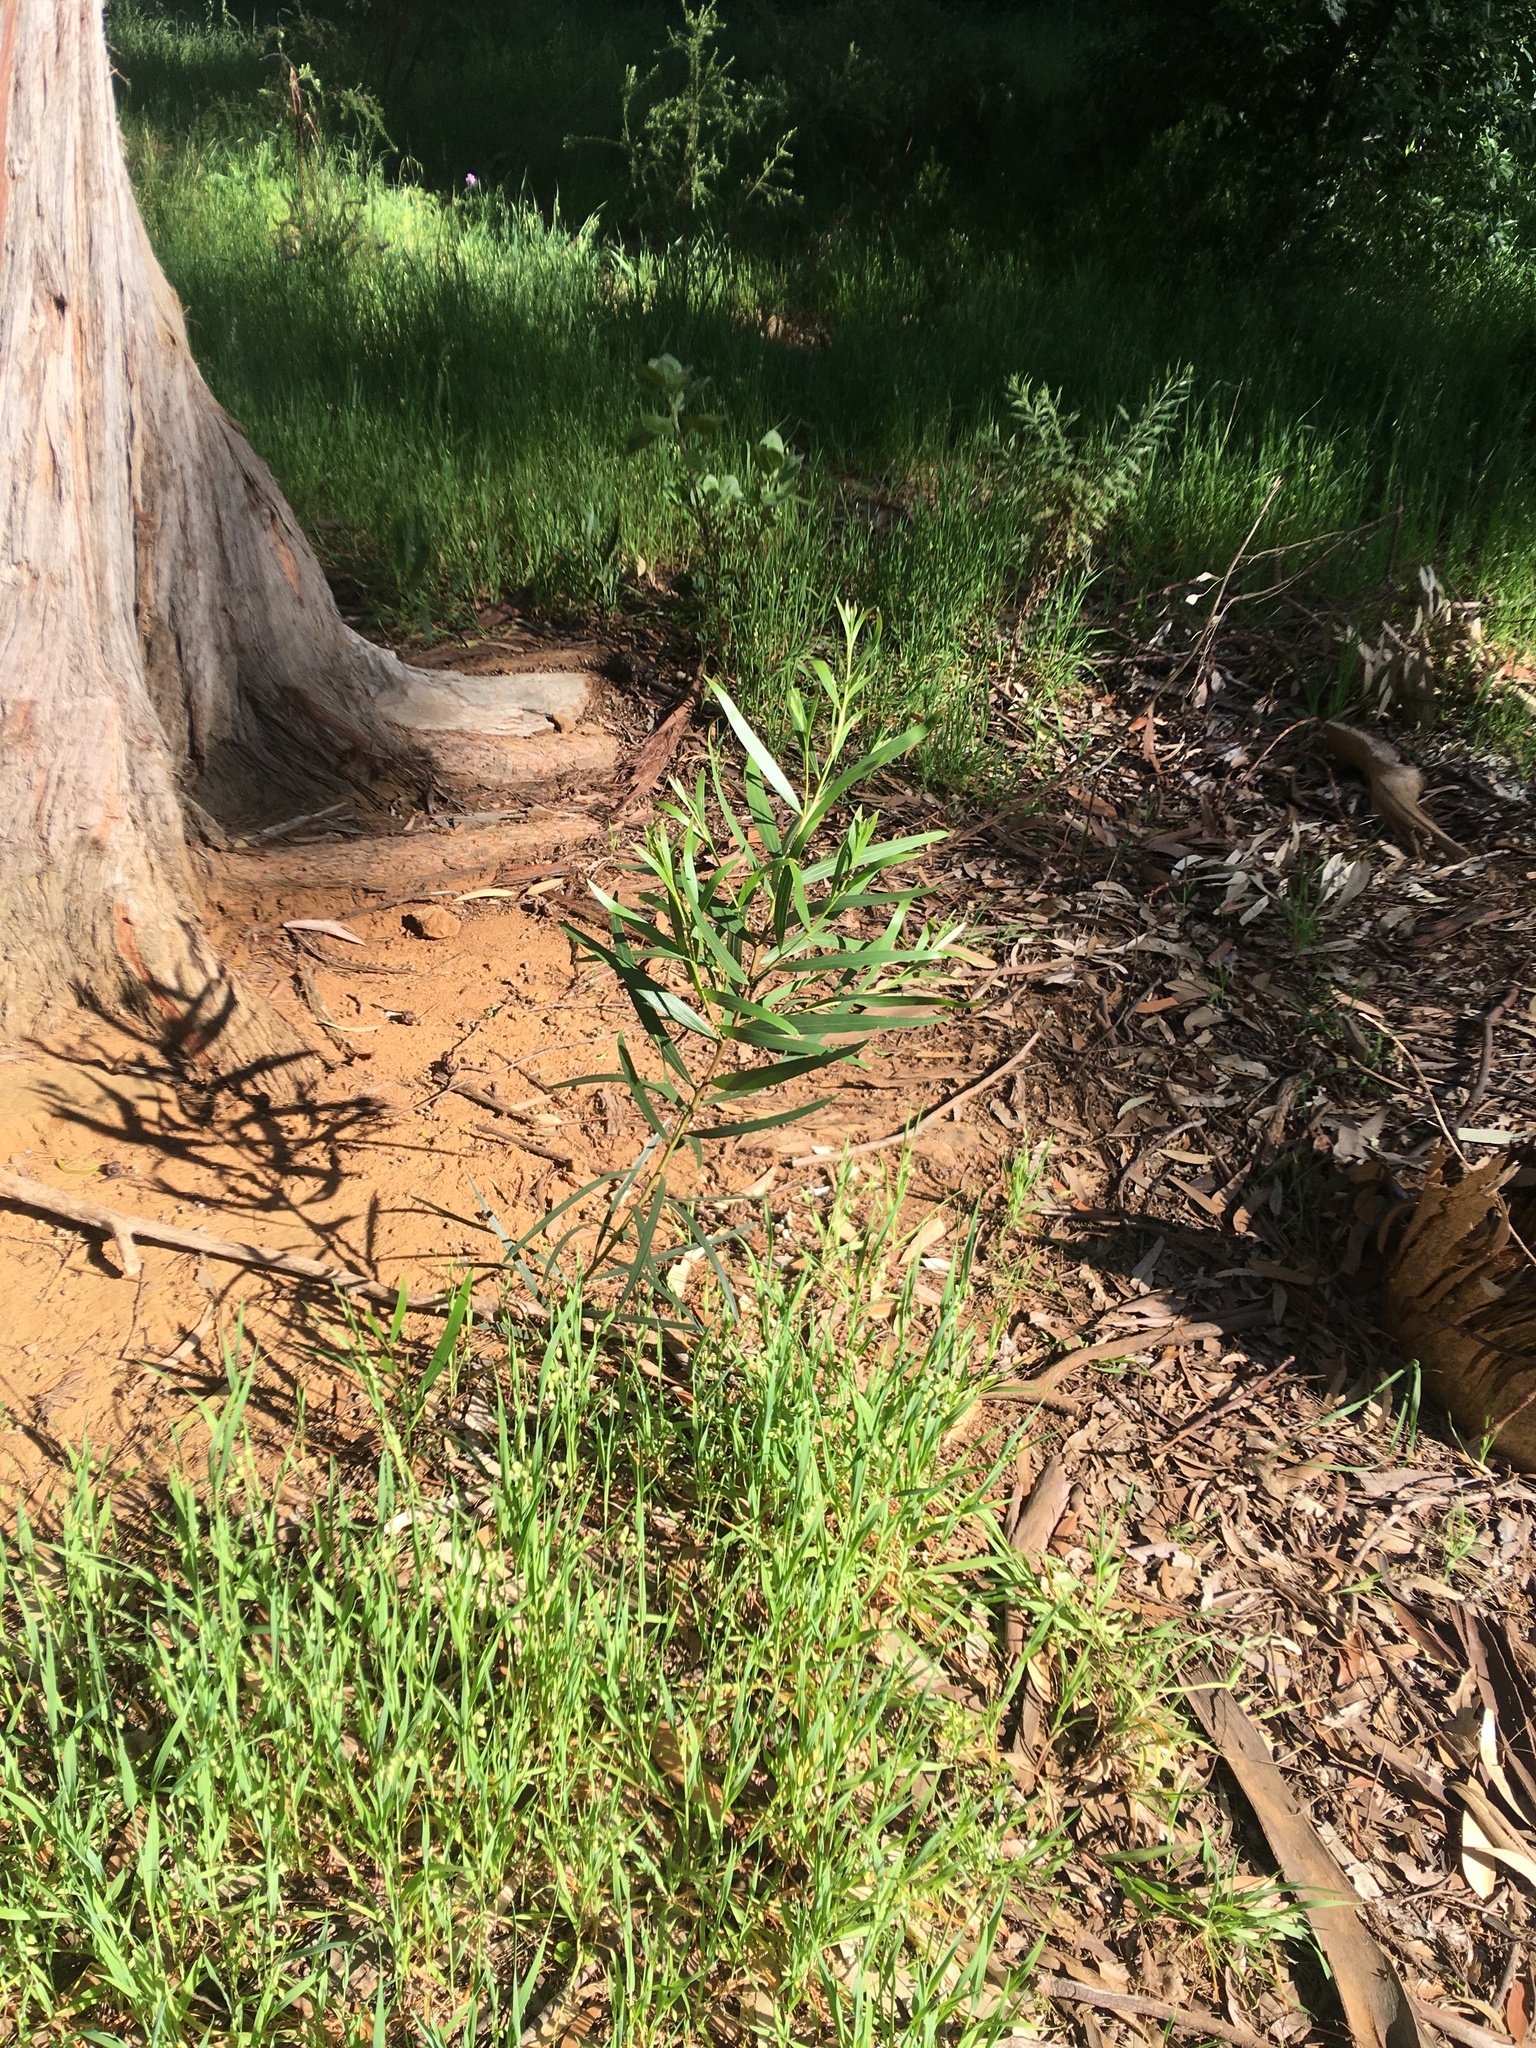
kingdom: Plantae
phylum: Tracheophyta
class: Magnoliopsida
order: Fabales
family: Fabaceae
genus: Acacia
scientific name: Acacia longifolia
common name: Sydney golden wattle
